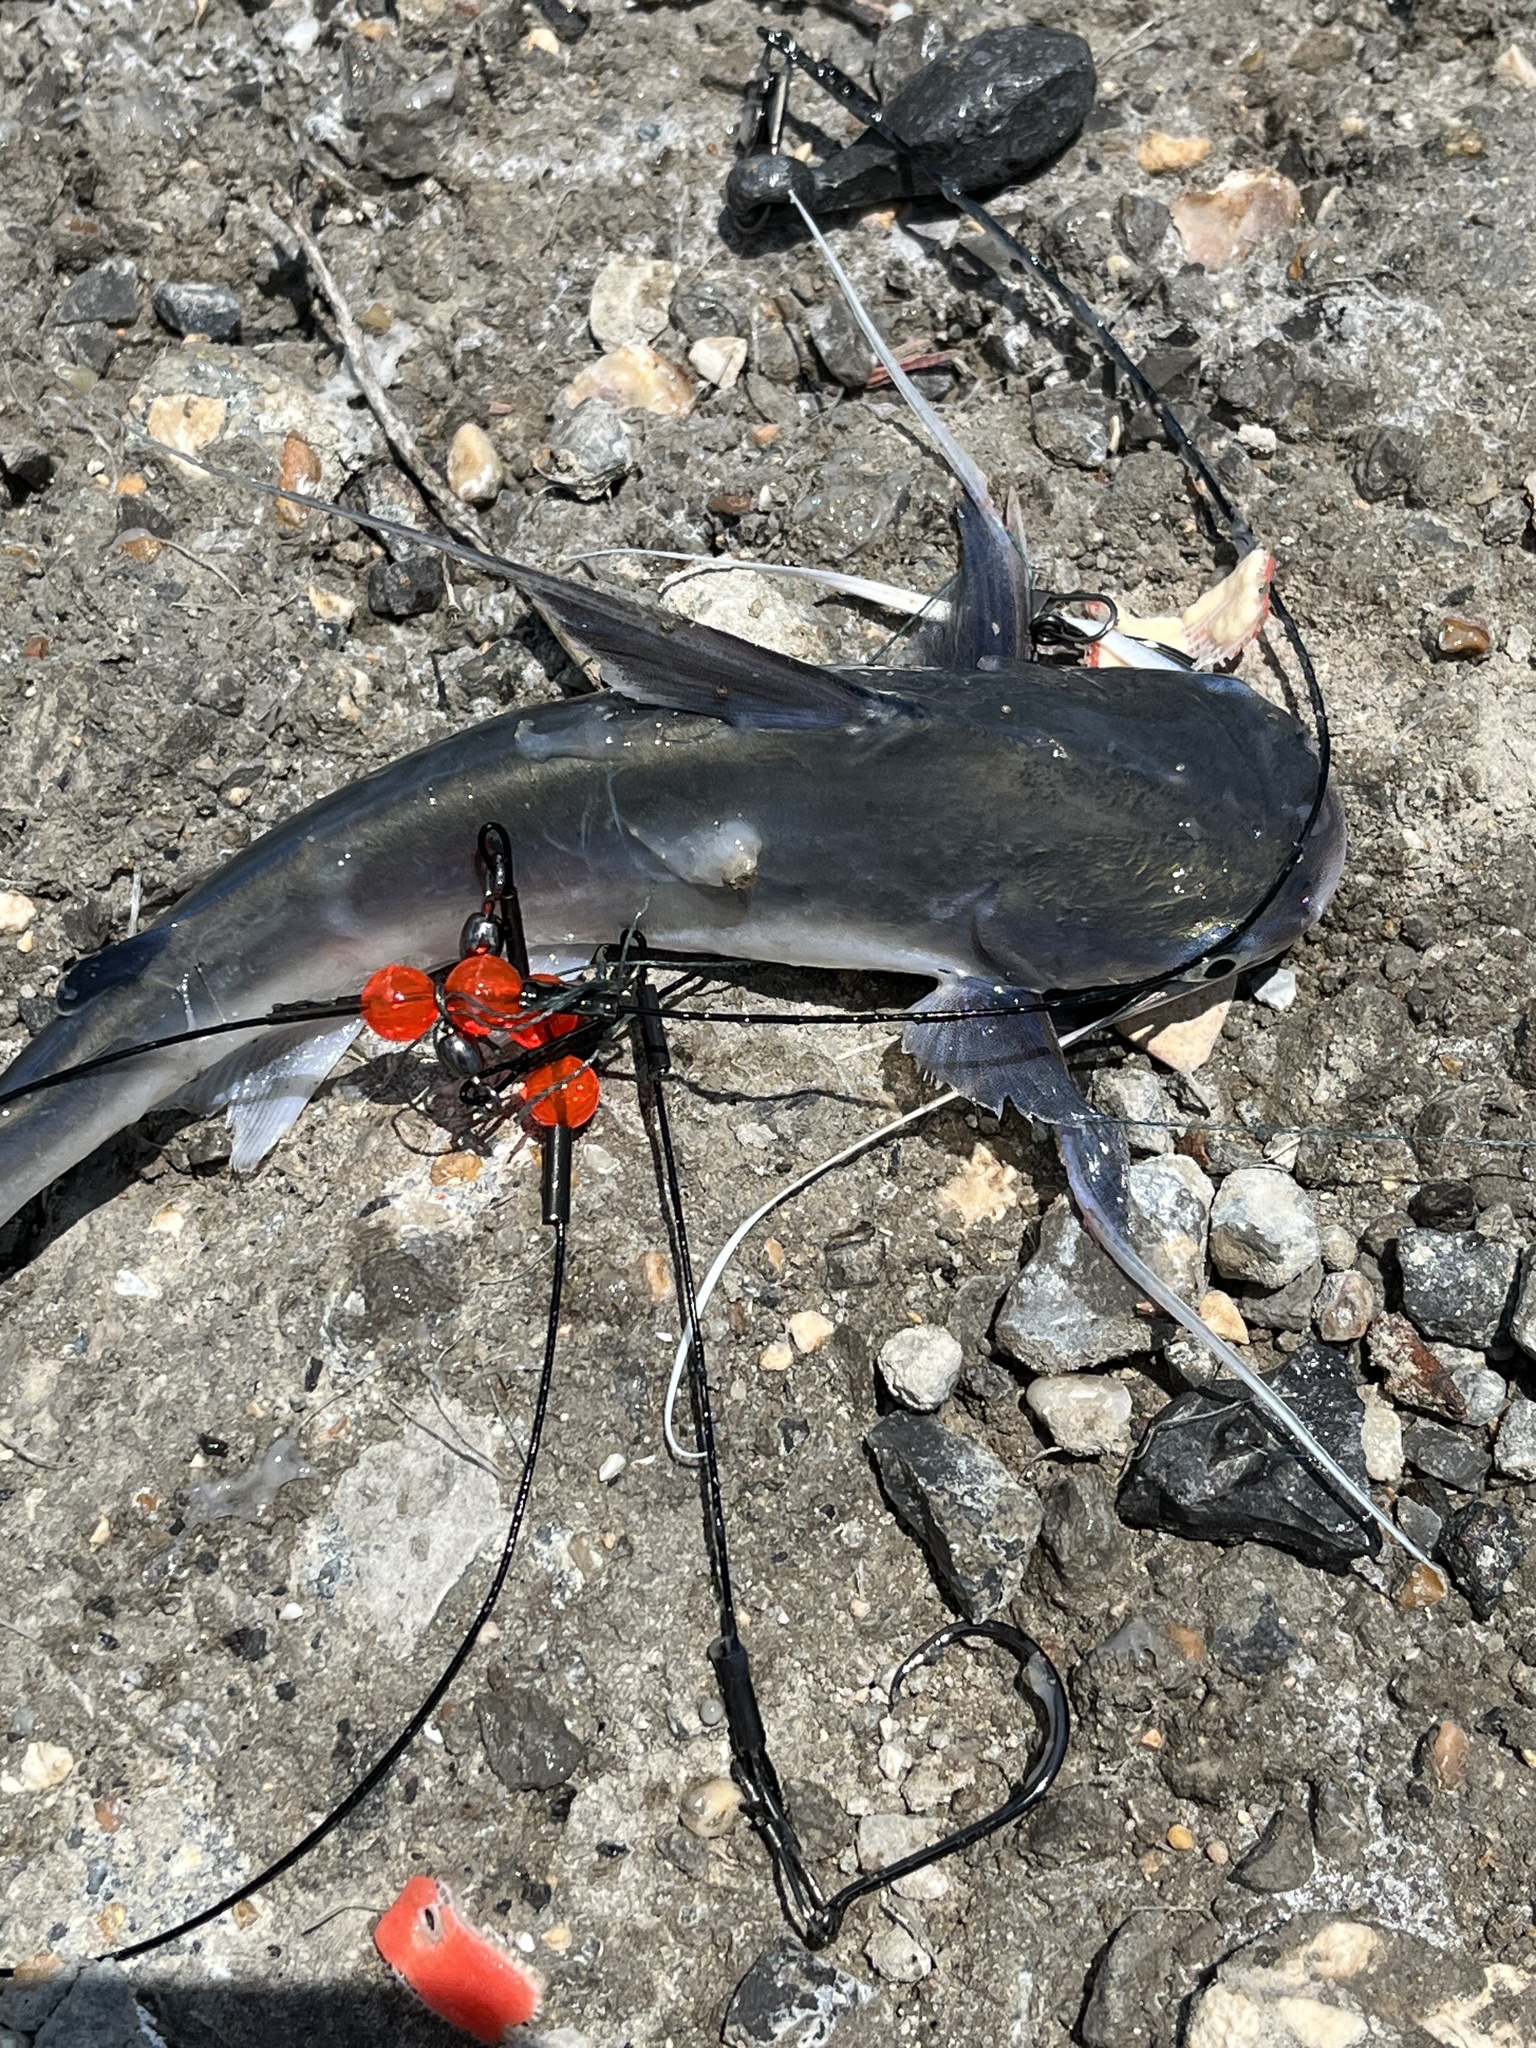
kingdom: Animalia
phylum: Chordata
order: Siluriformes
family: Ariidae
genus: Bagre
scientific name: Bagre marinus
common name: Gafftopsail sea catfish
